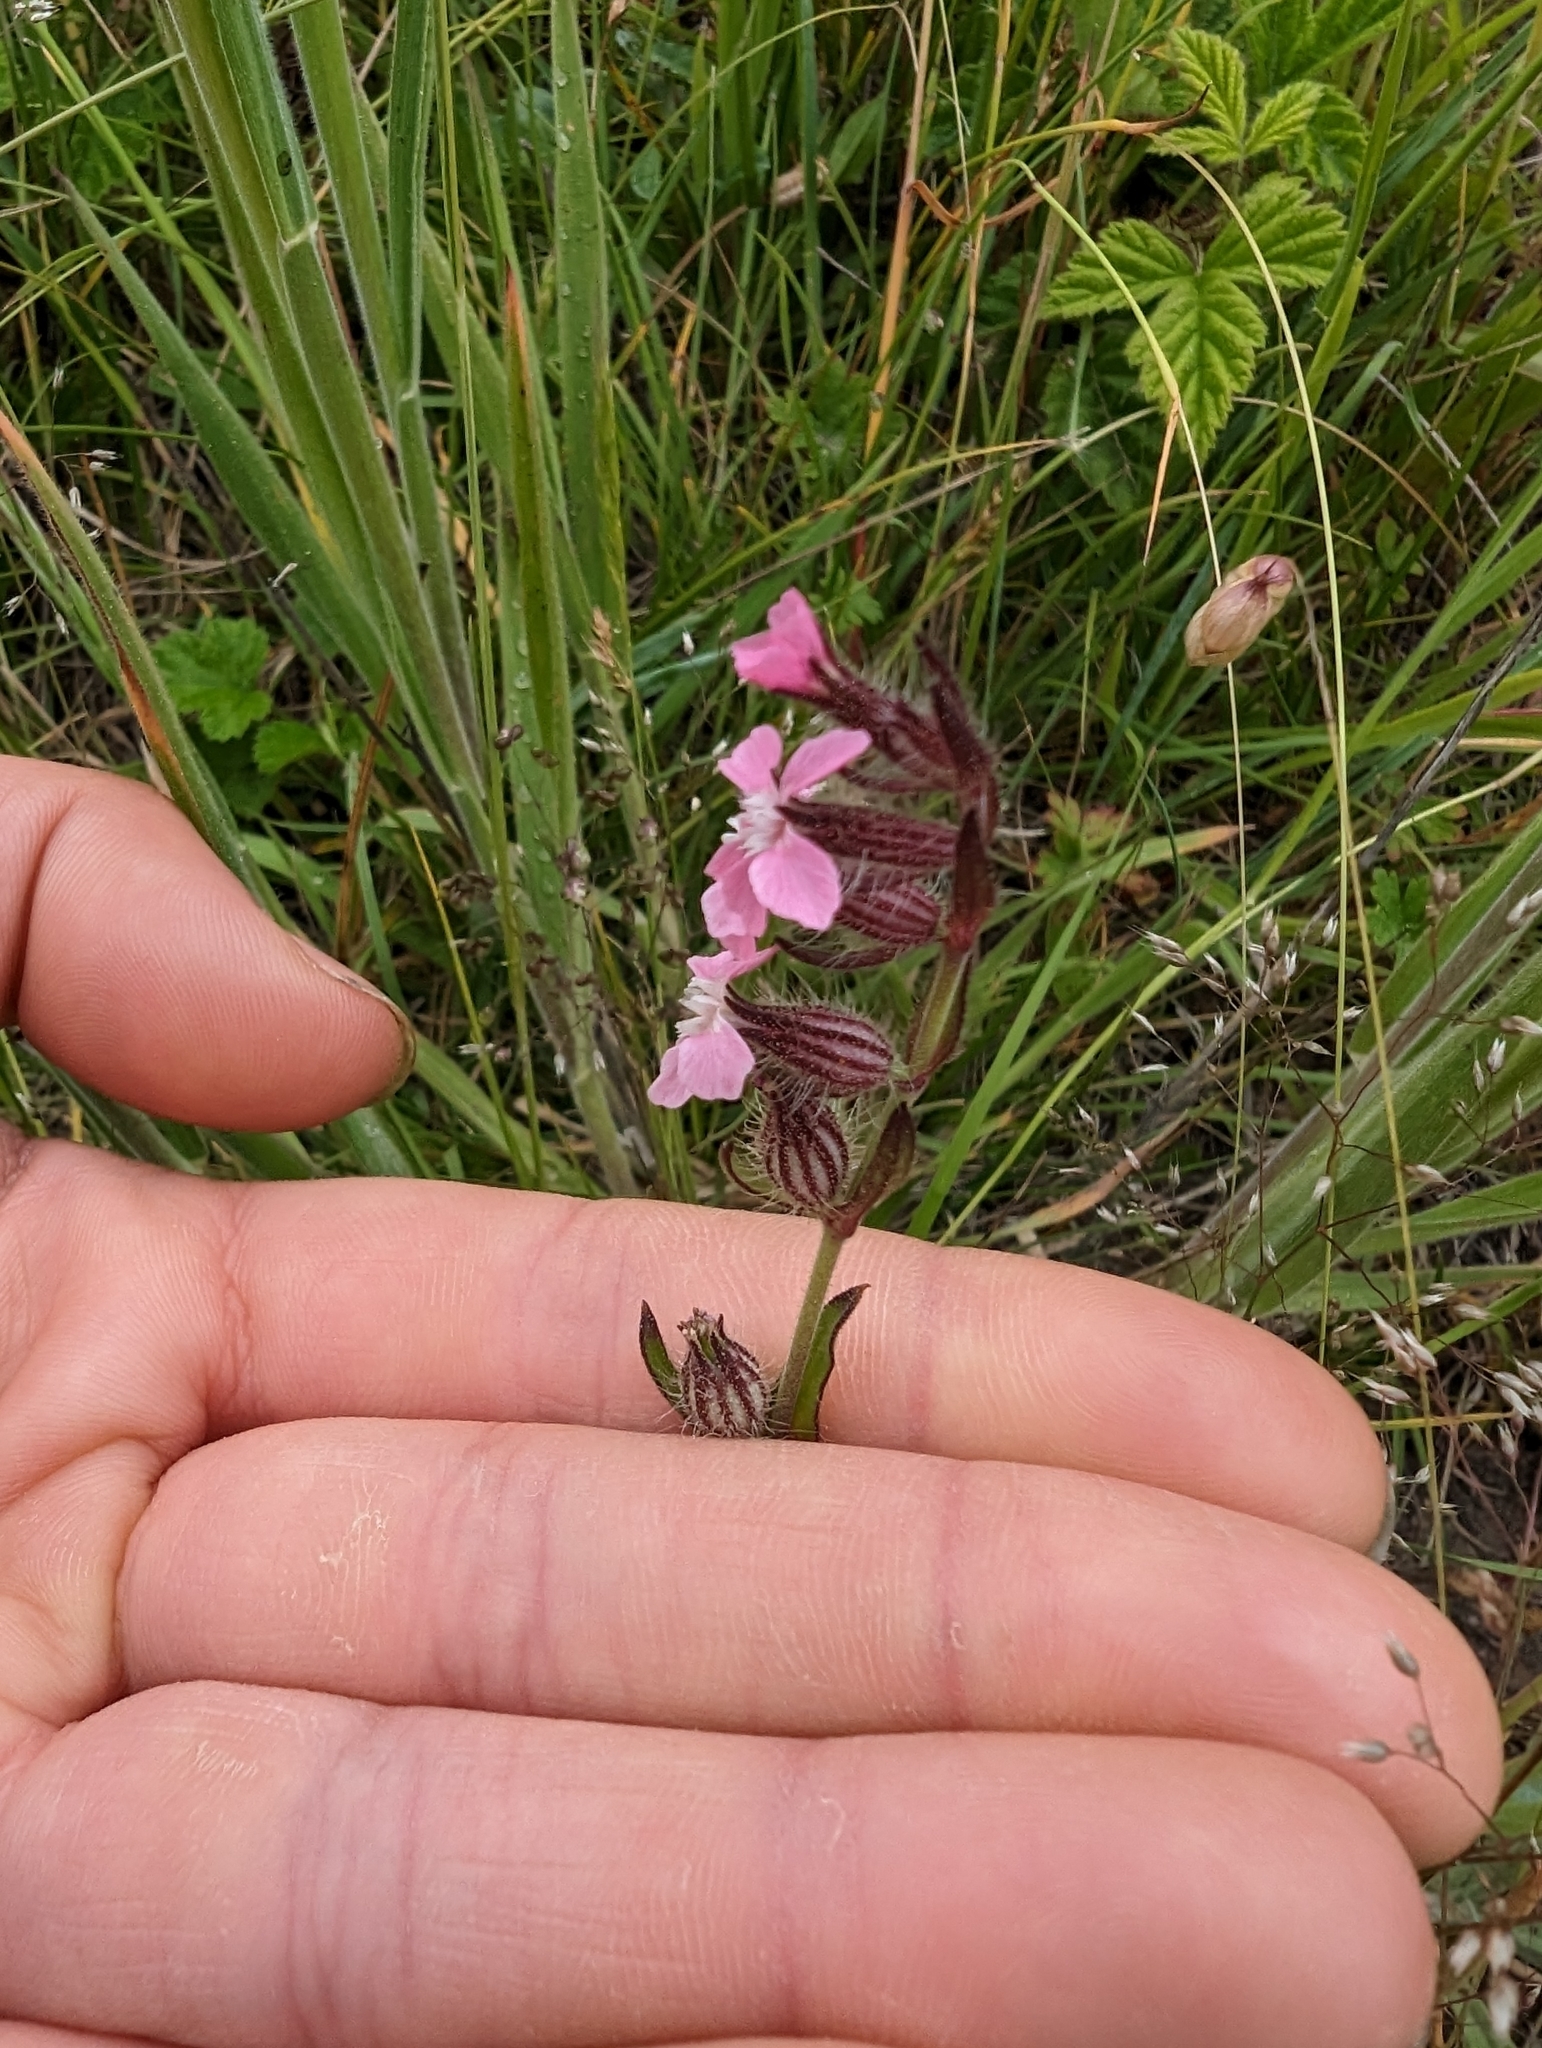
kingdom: Plantae
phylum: Tracheophyta
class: Magnoliopsida
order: Caryophyllales
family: Caryophyllaceae
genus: Silene
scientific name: Silene gallica
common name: Small-flowered catchfly
